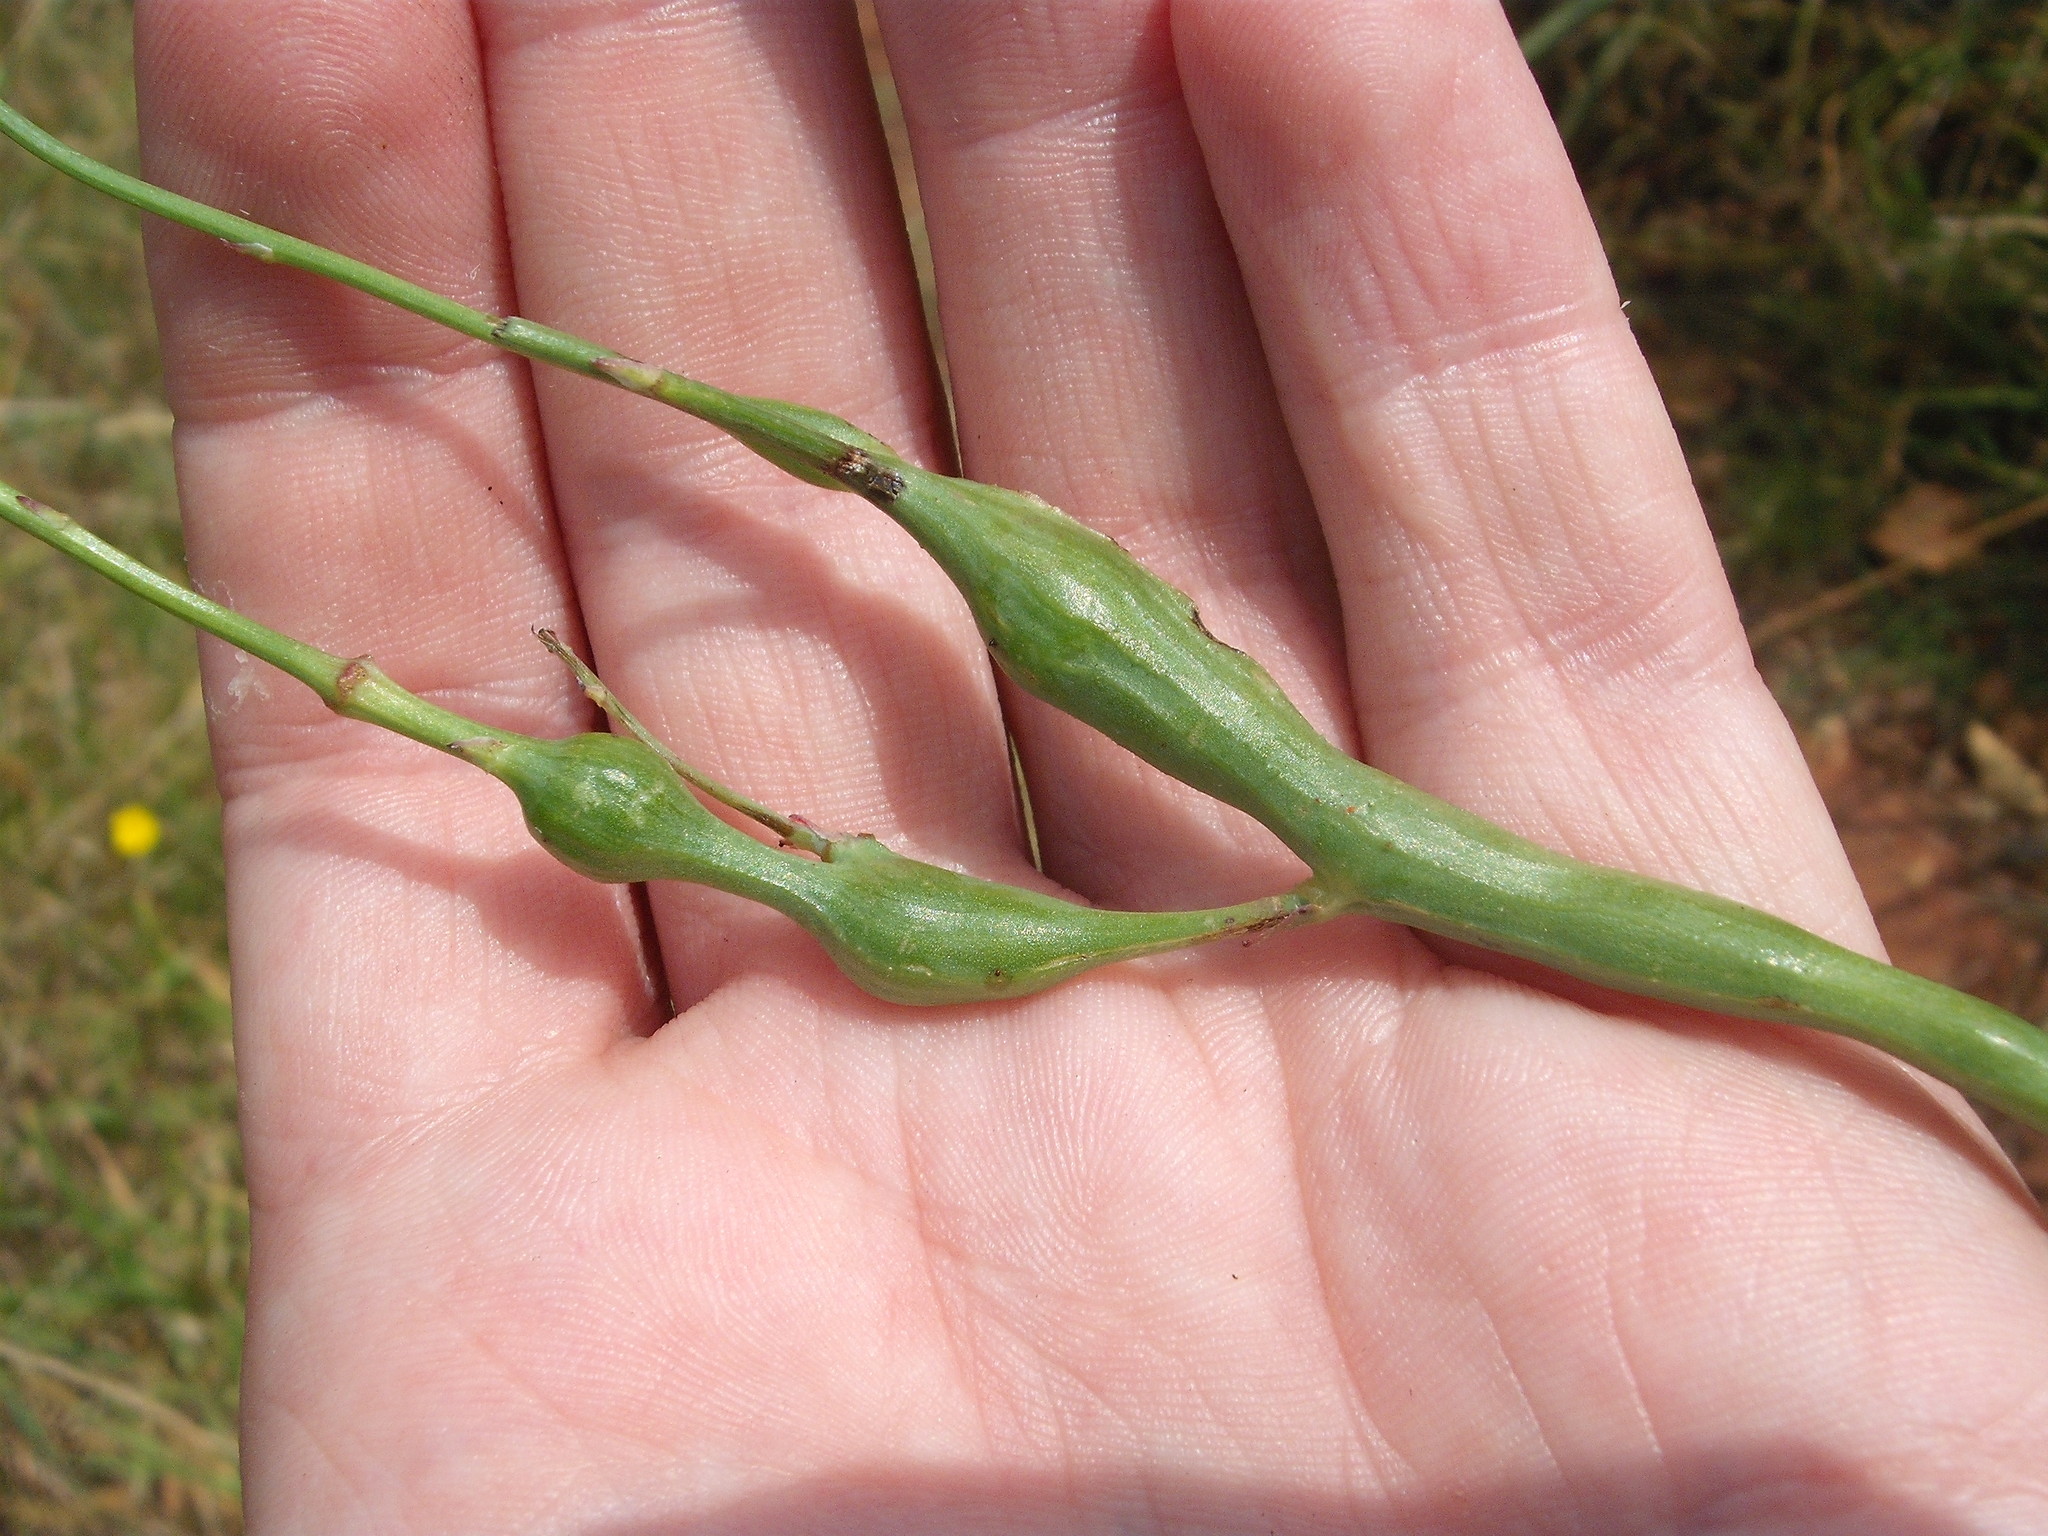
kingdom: Animalia
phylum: Arthropoda
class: Insecta
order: Hymenoptera
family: Cynipidae
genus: Phanacis
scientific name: Phanacis hypochoeridis
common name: Gall wasp
